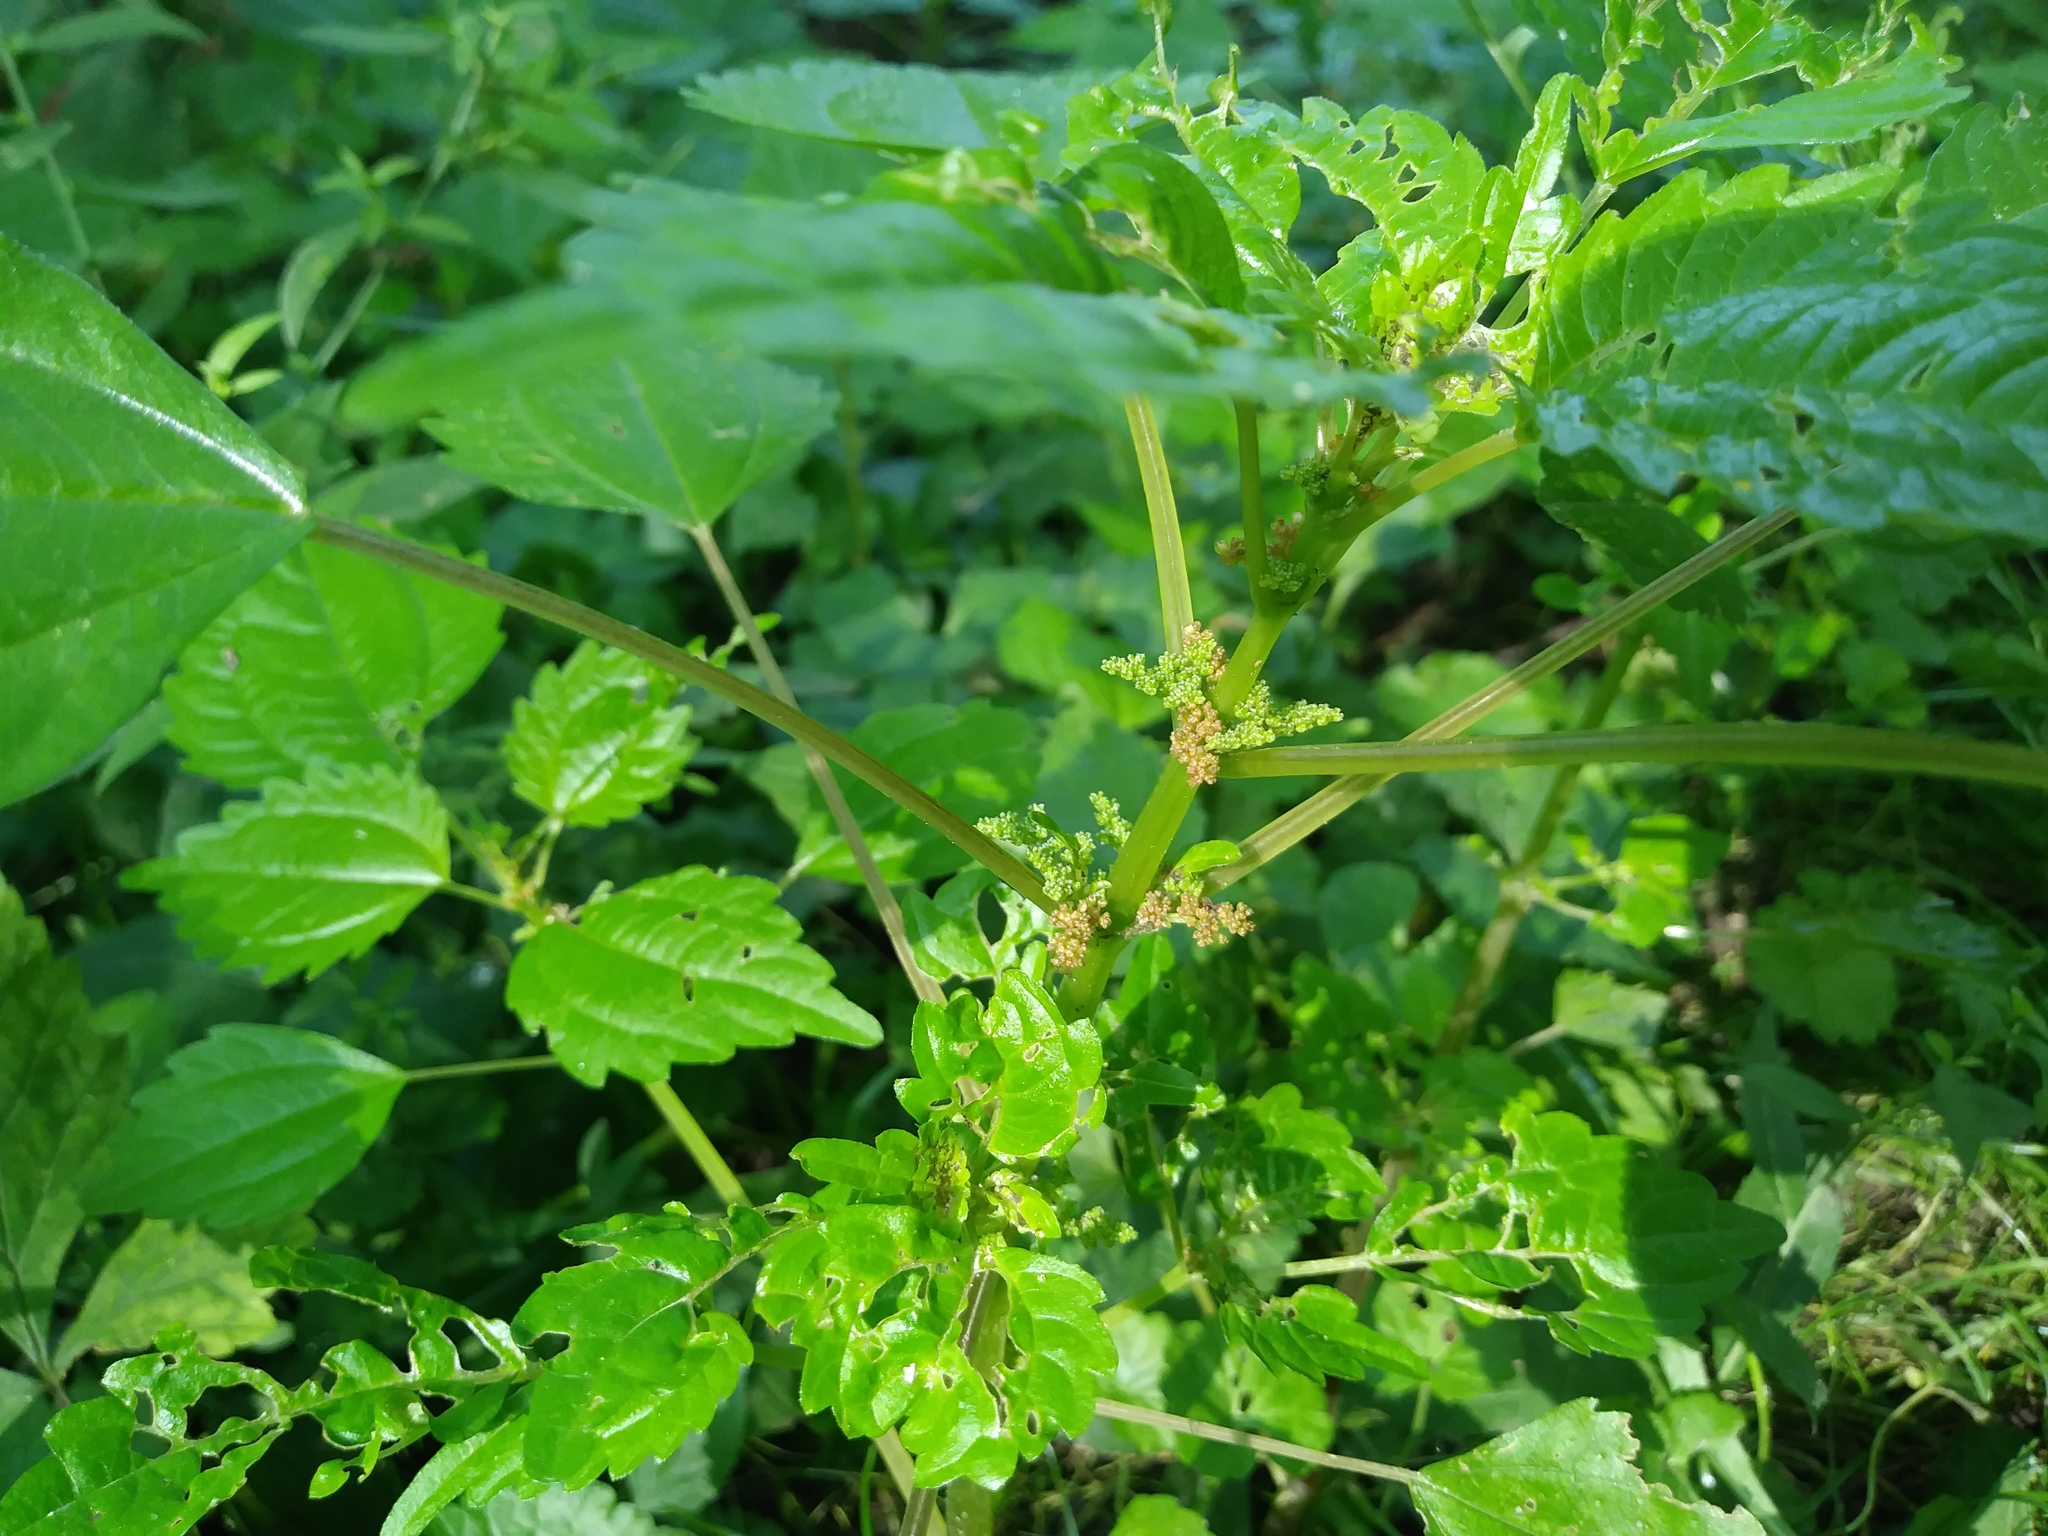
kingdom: Plantae
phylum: Tracheophyta
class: Magnoliopsida
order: Rosales
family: Urticaceae
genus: Pilea
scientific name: Pilea pumila
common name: Clearweed
